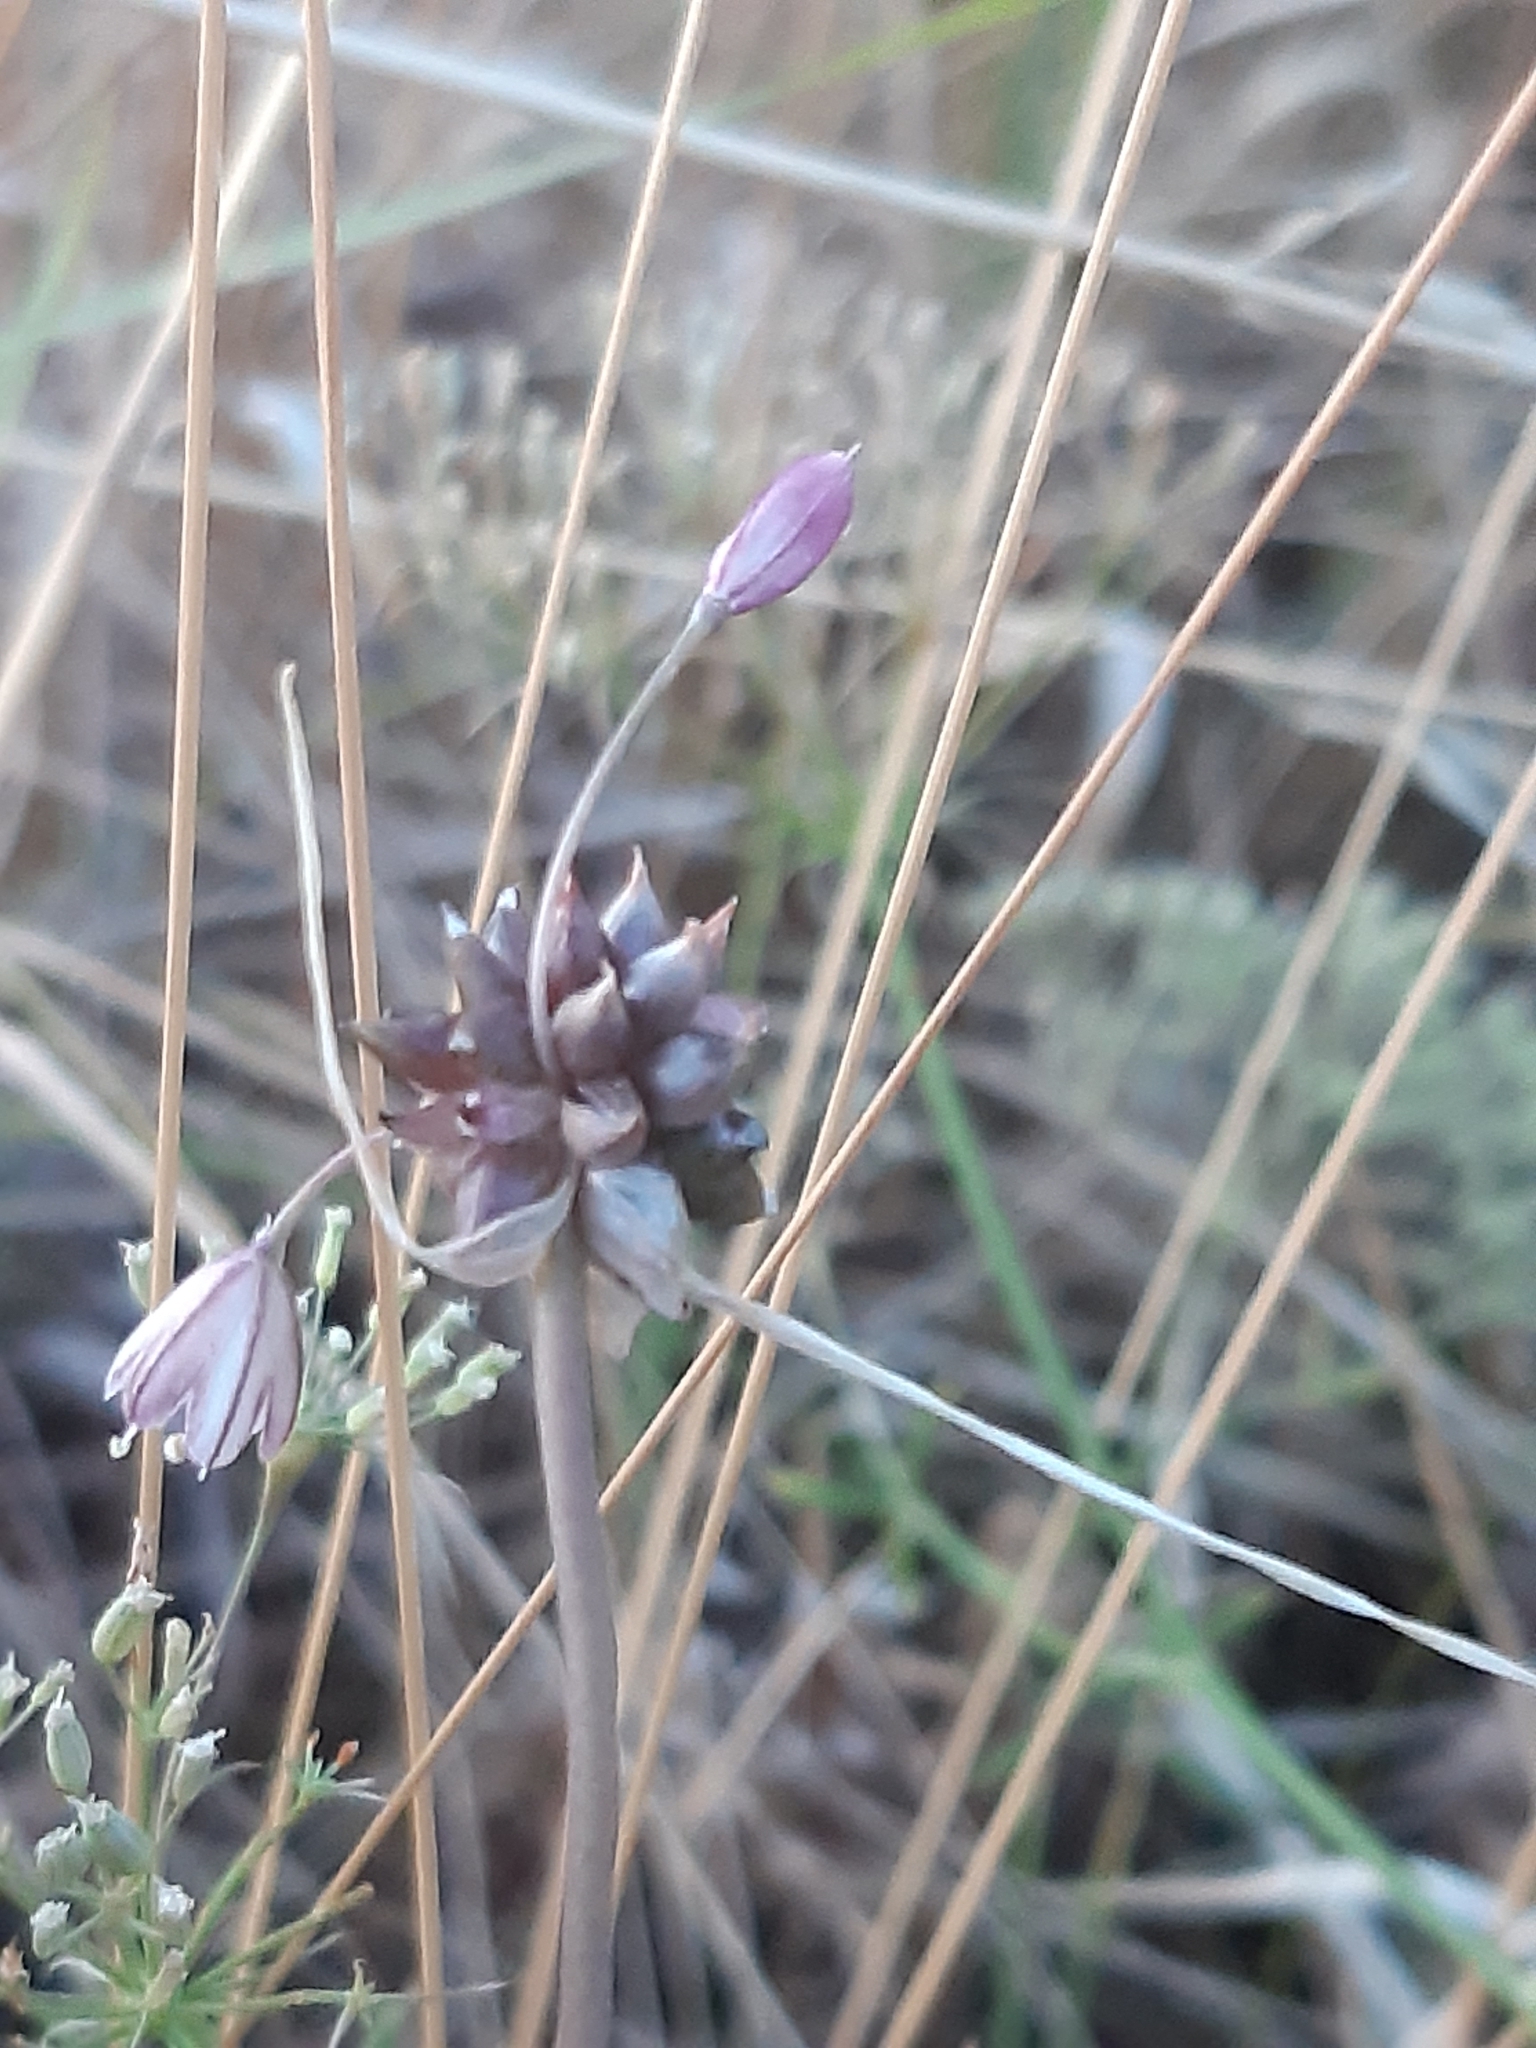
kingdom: Plantae
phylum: Tracheophyta
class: Liliopsida
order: Asparagales
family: Amaryllidaceae
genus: Allium
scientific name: Allium oleraceum
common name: Field garlic
